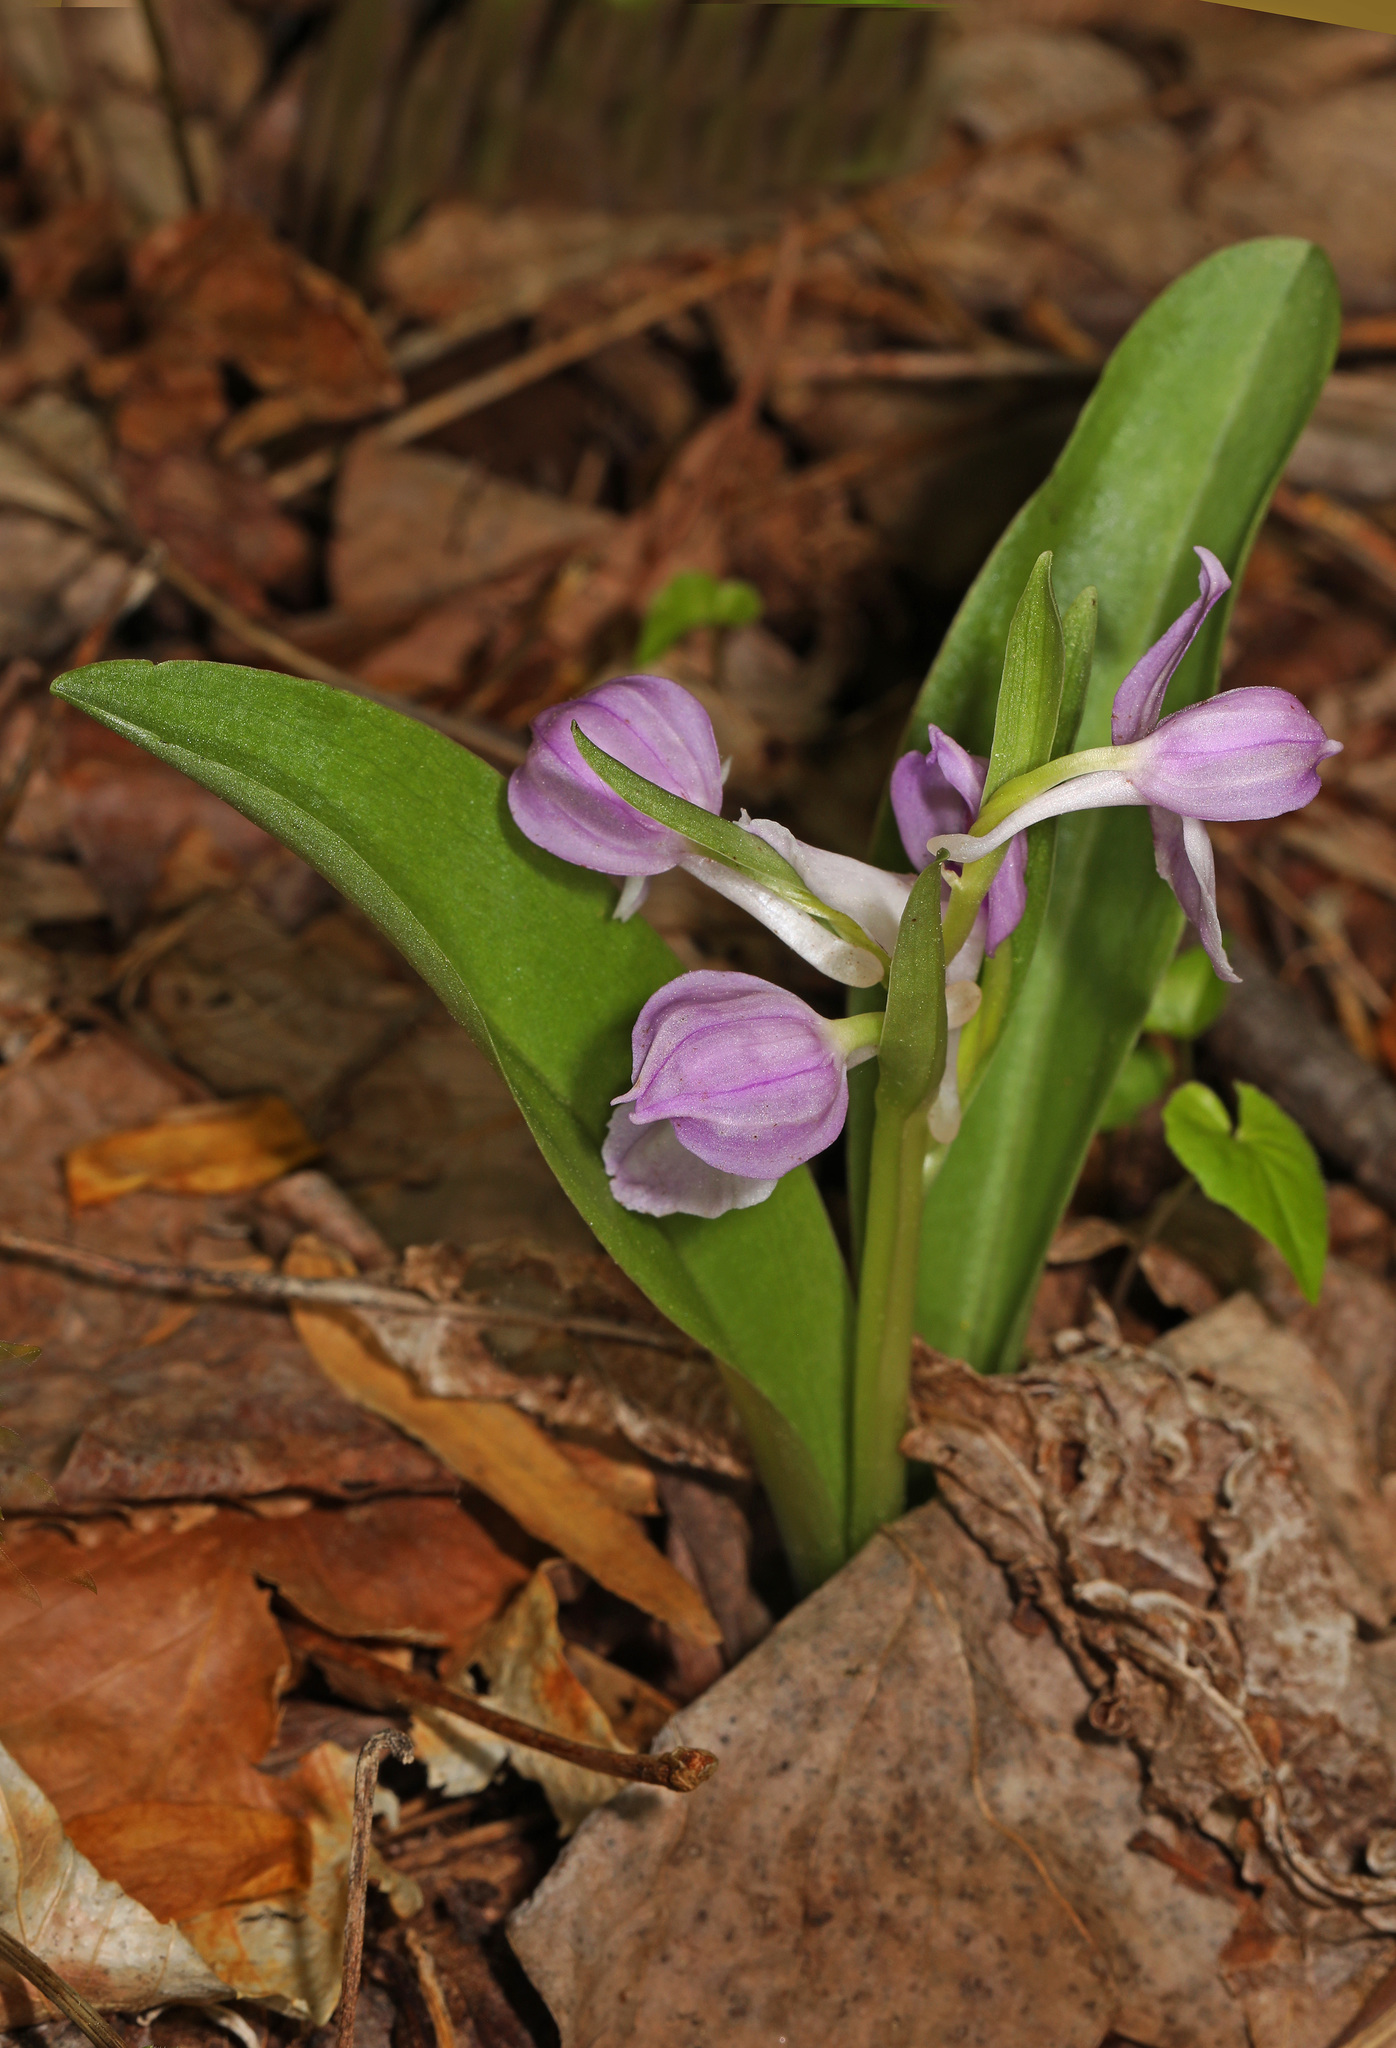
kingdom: Plantae
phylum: Tracheophyta
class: Liliopsida
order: Asparagales
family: Orchidaceae
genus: Galearis
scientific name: Galearis spectabilis
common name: Purple-hooded orchis
